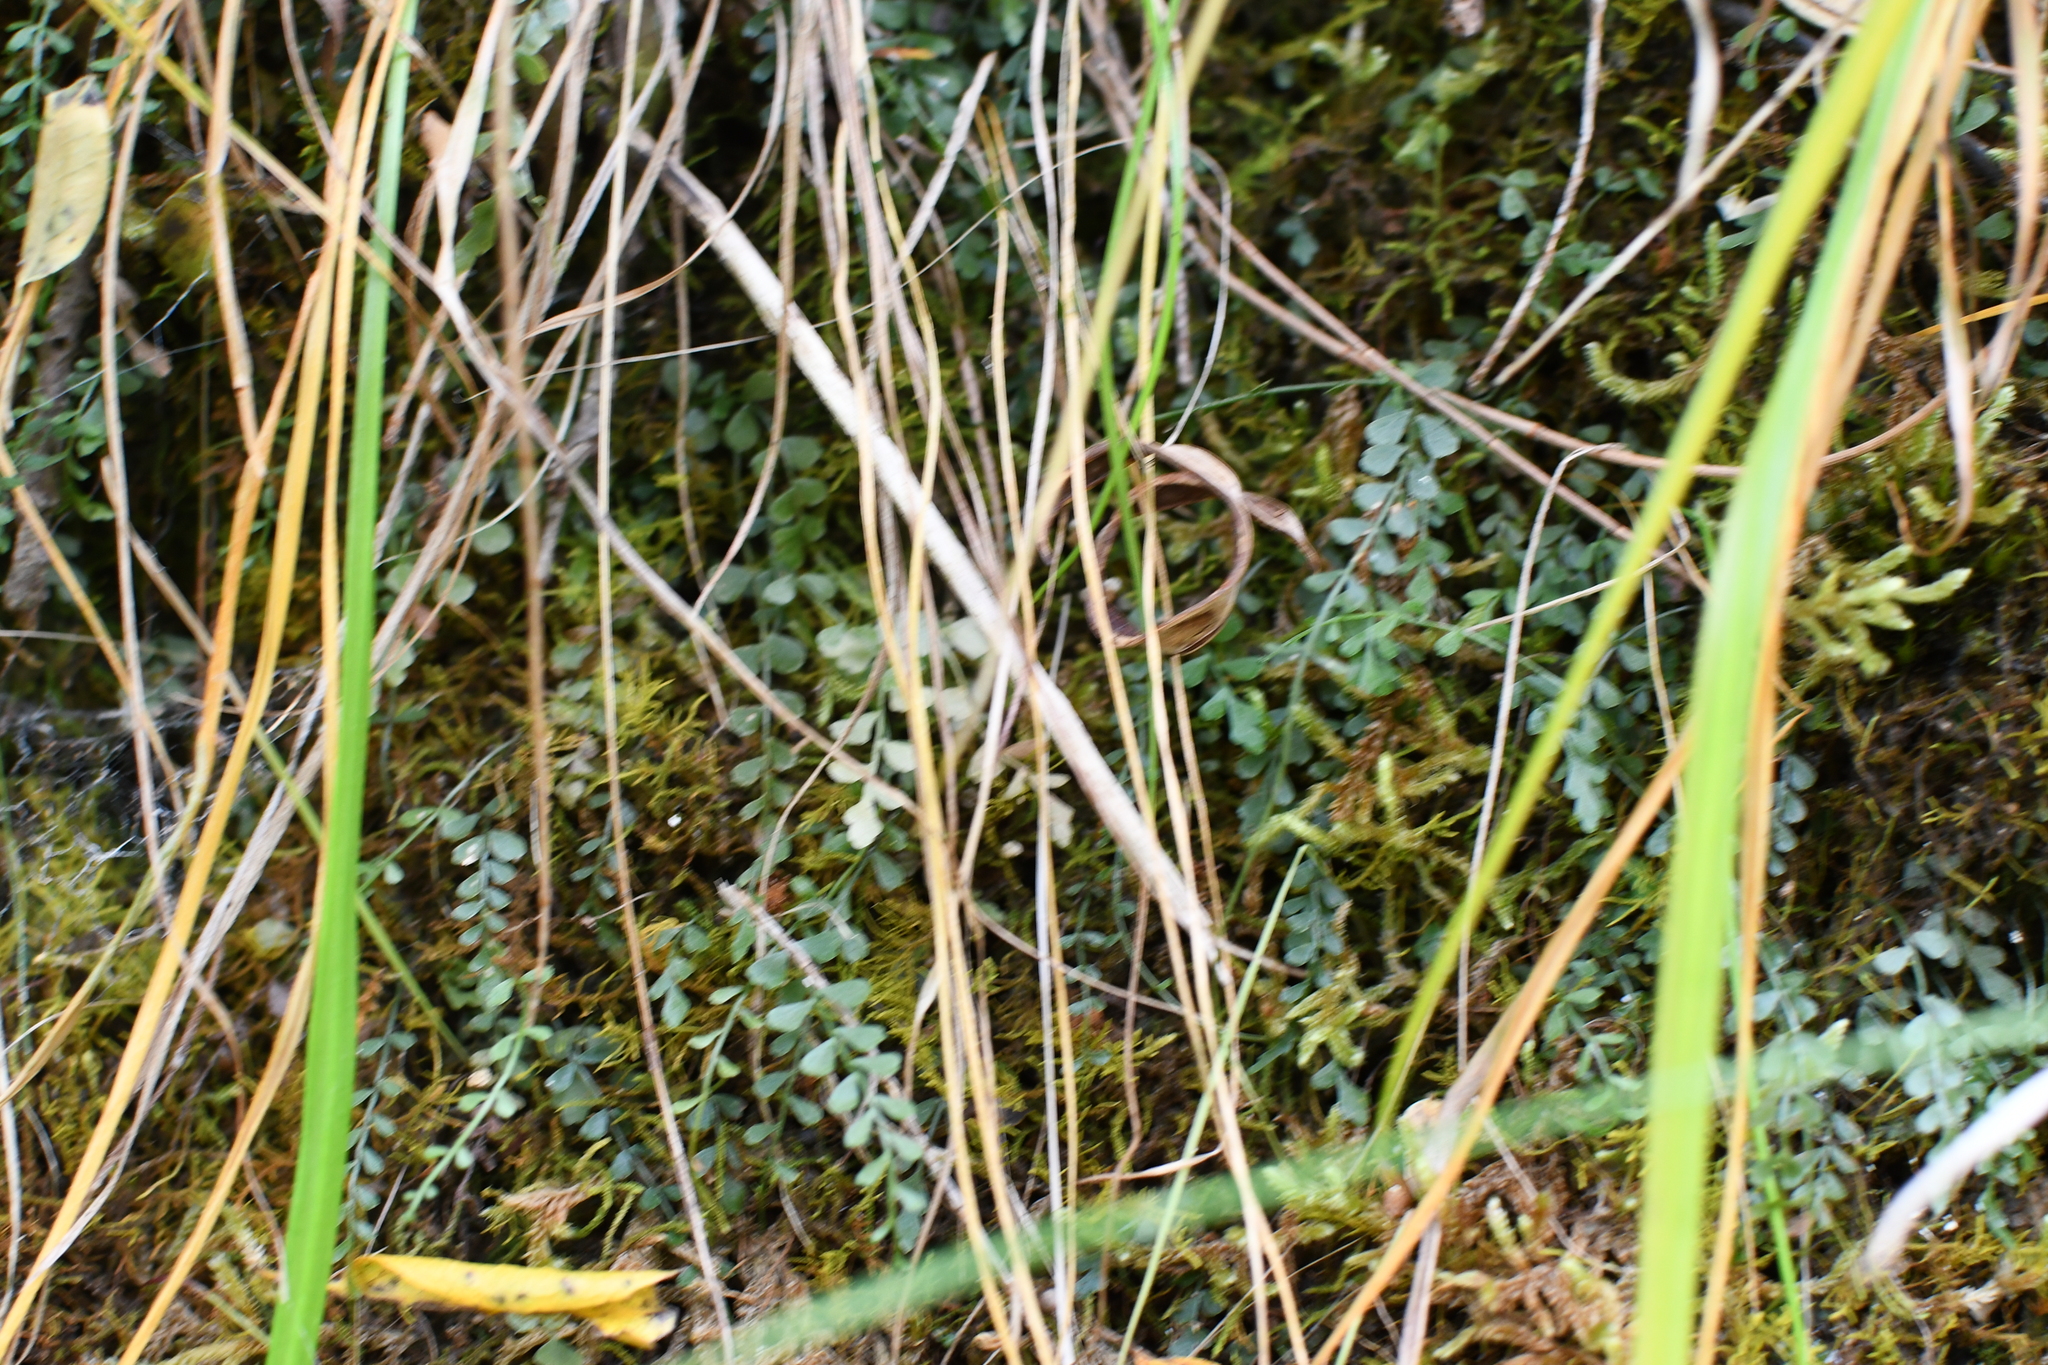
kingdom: Plantae
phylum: Tracheophyta
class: Polypodiopsida
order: Polypodiales
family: Aspleniaceae
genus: Asplenium
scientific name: Asplenium flabellifolium
